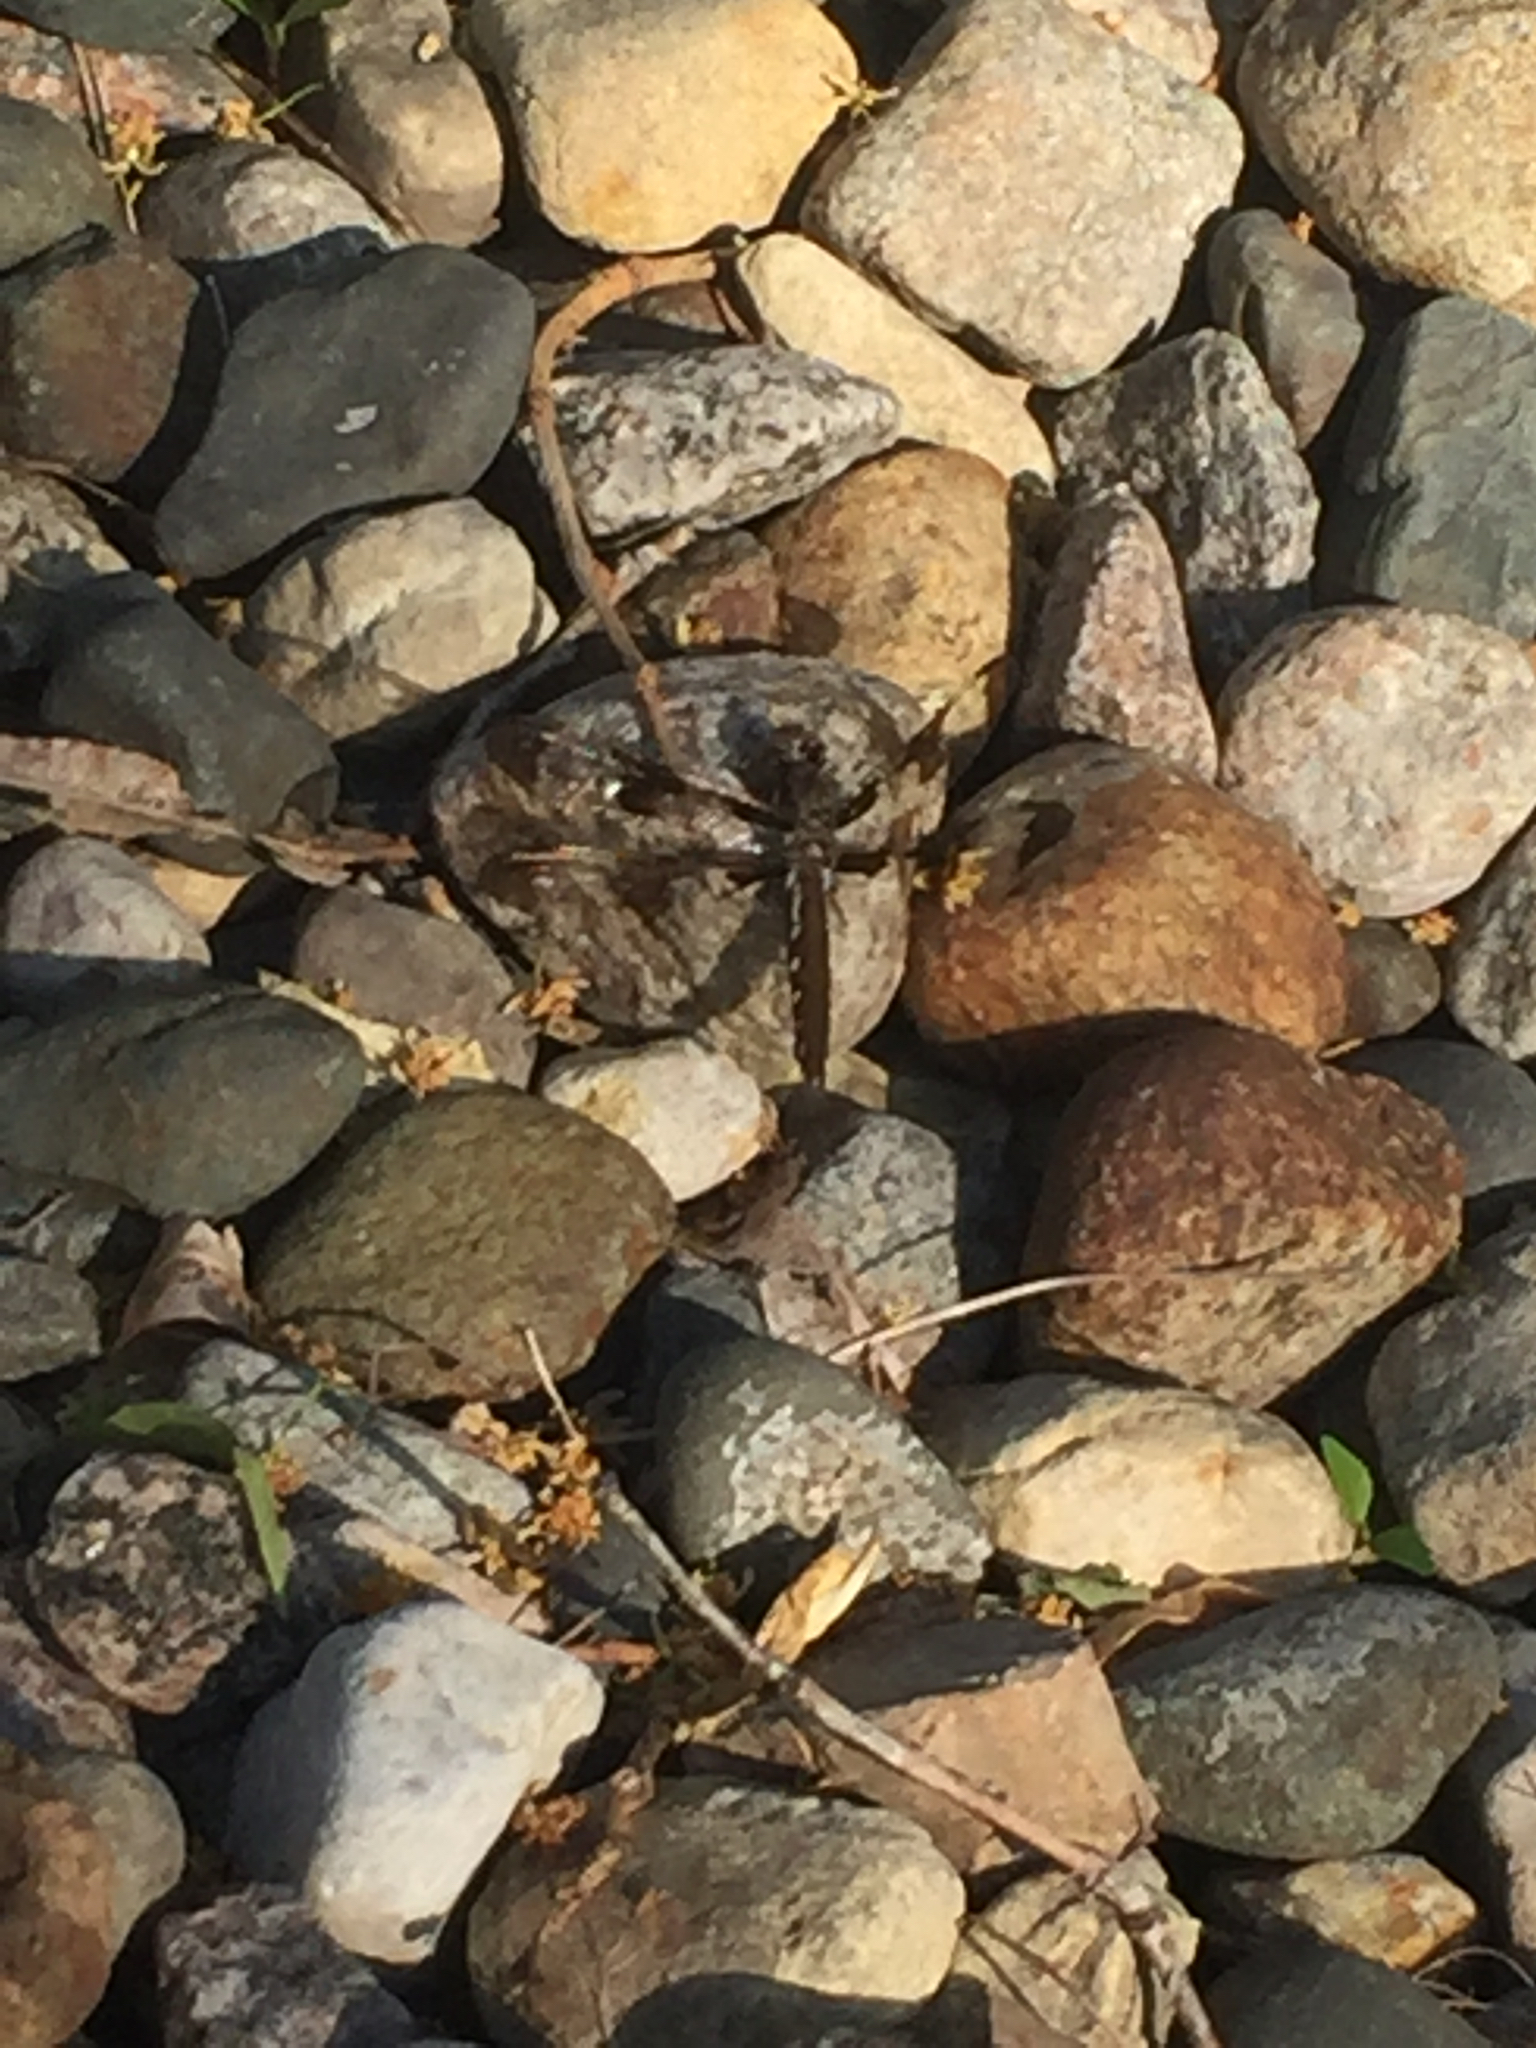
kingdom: Animalia
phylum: Arthropoda
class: Insecta
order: Odonata
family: Libellulidae
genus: Plathemis
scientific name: Plathemis lydia
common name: Common whitetail
